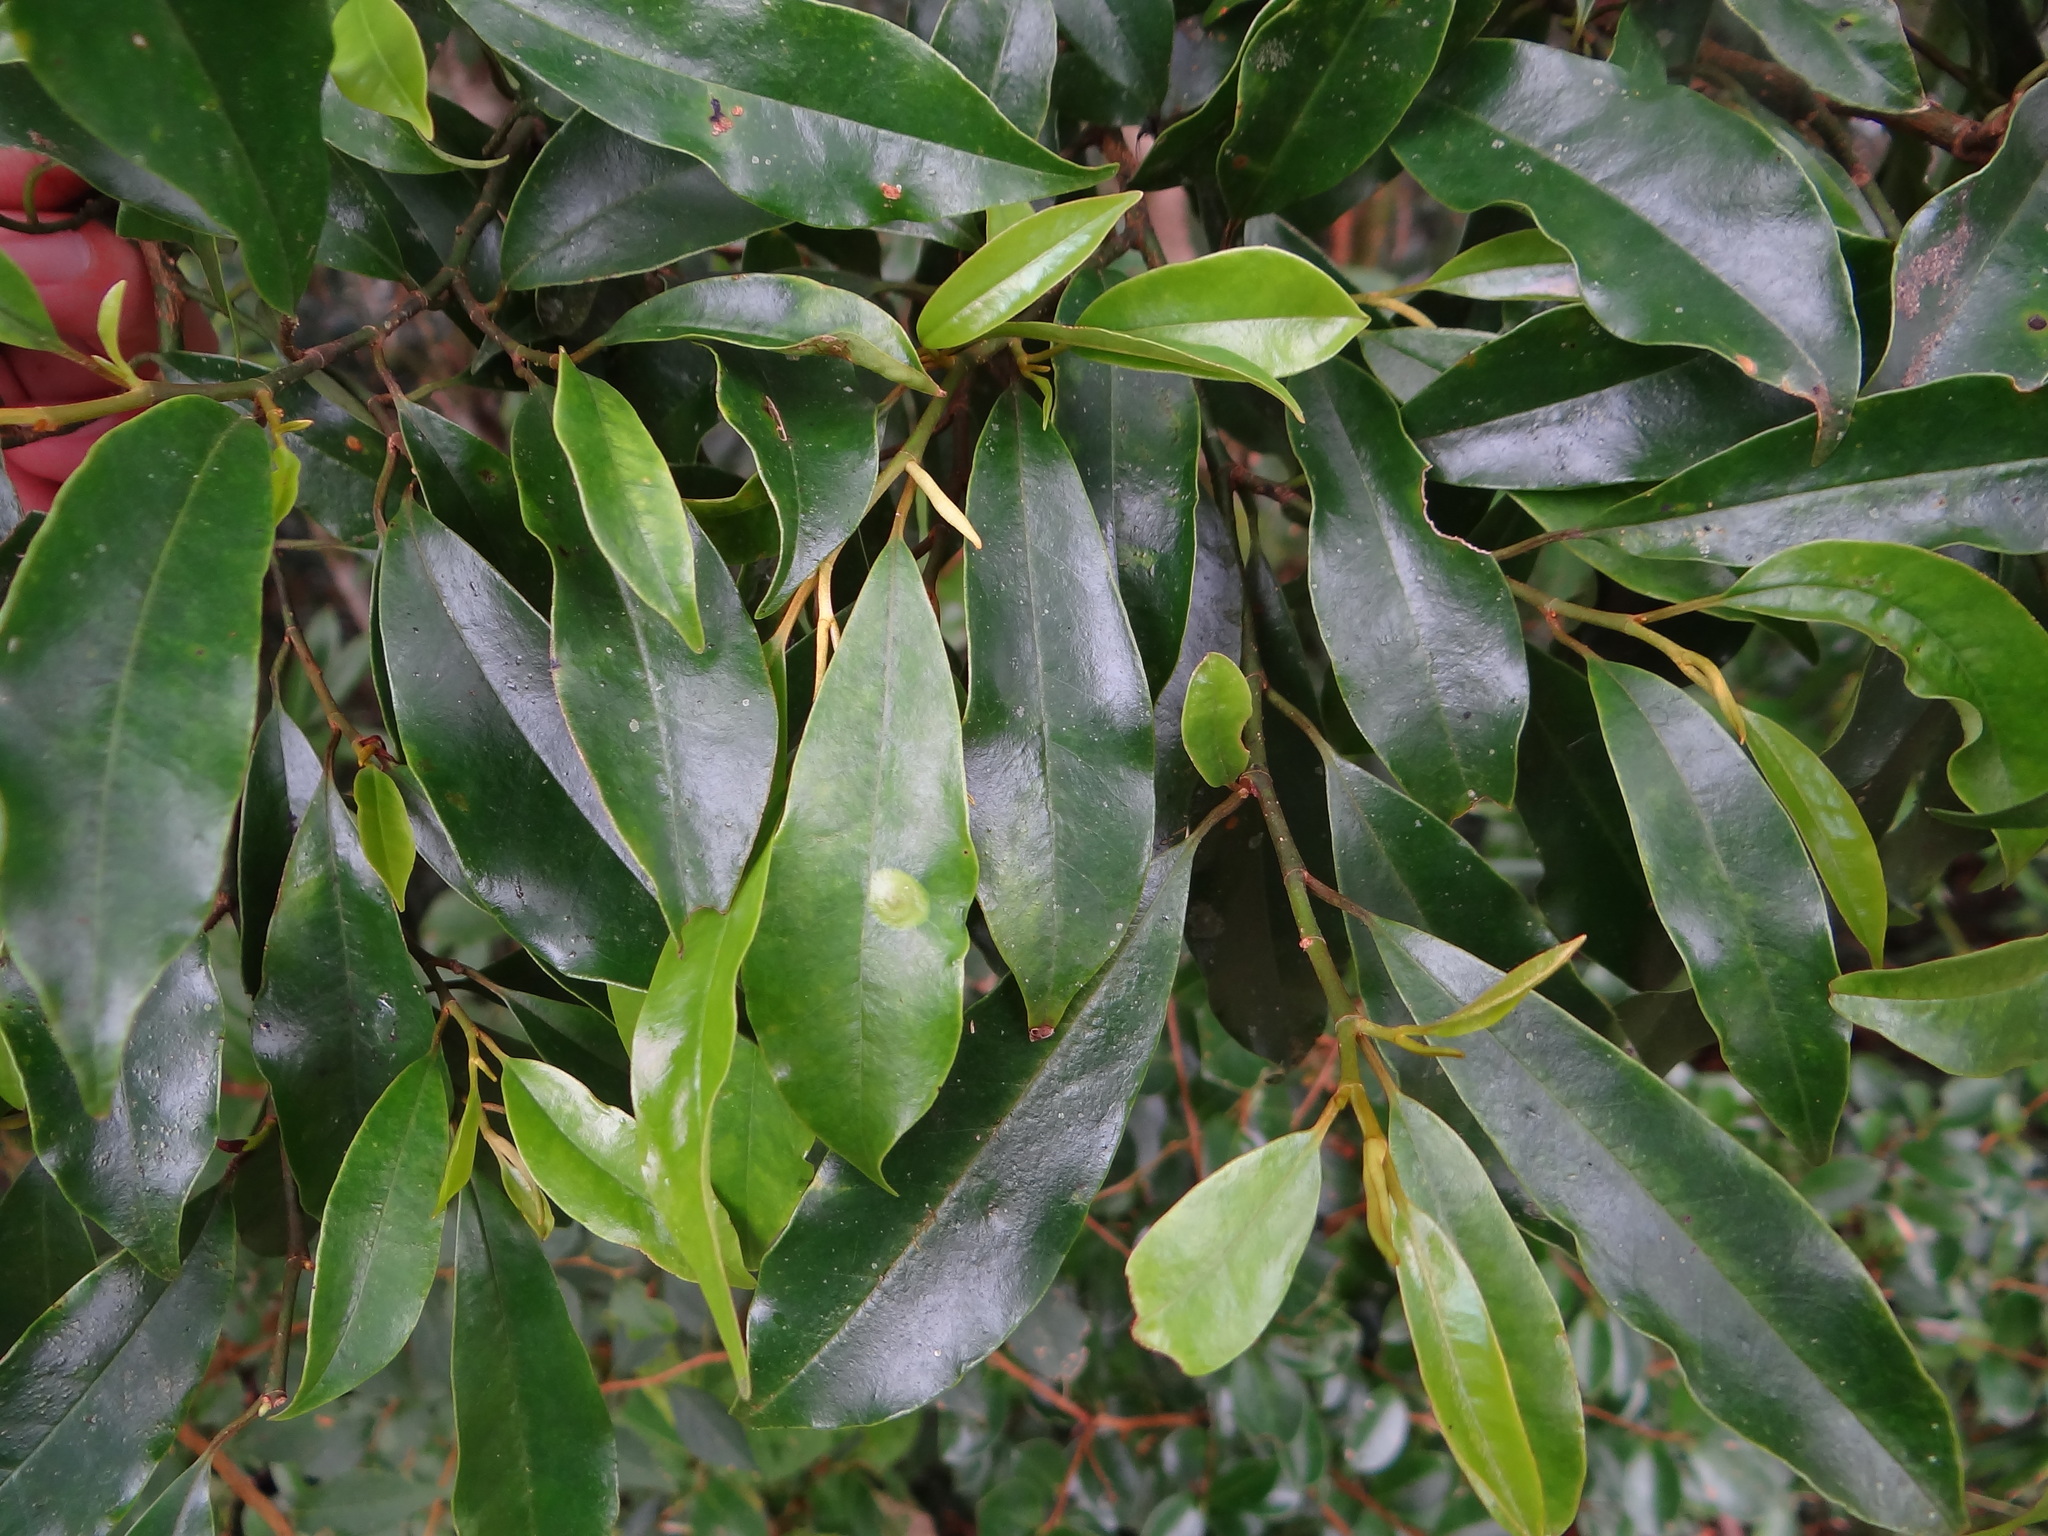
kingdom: Plantae
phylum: Tracheophyta
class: Magnoliopsida
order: Magnoliales
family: Magnoliaceae
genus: Magnolia
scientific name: Magnolia compressa
